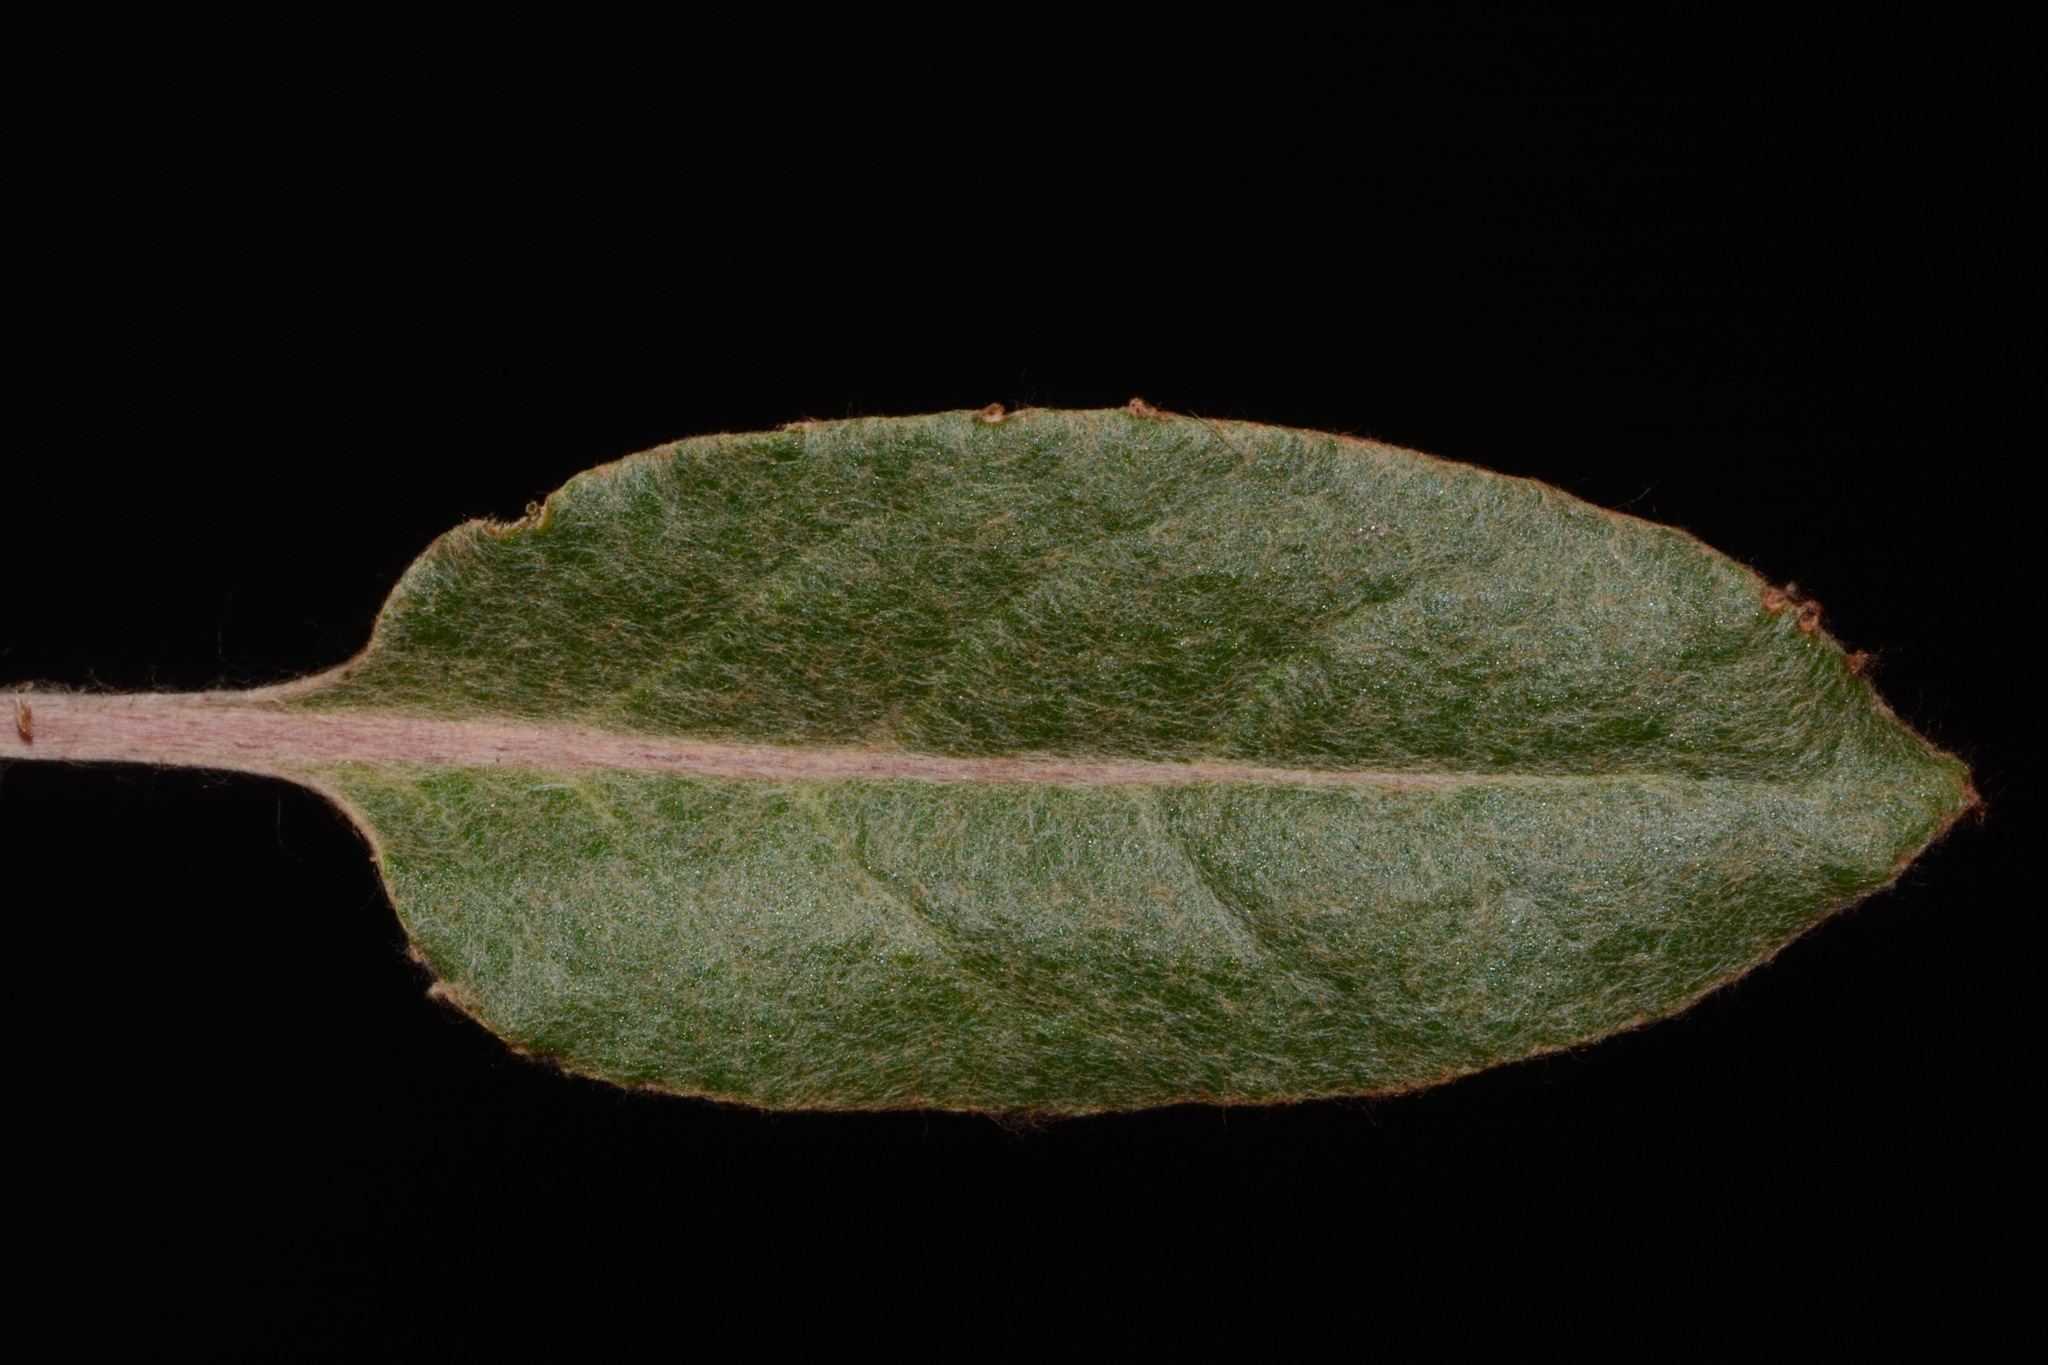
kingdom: Plantae
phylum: Tracheophyta
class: Magnoliopsida
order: Caryophyllales
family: Polygonaceae
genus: Eriogonum
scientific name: Eriogonum racemosum
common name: Redroot wild buckwheat
